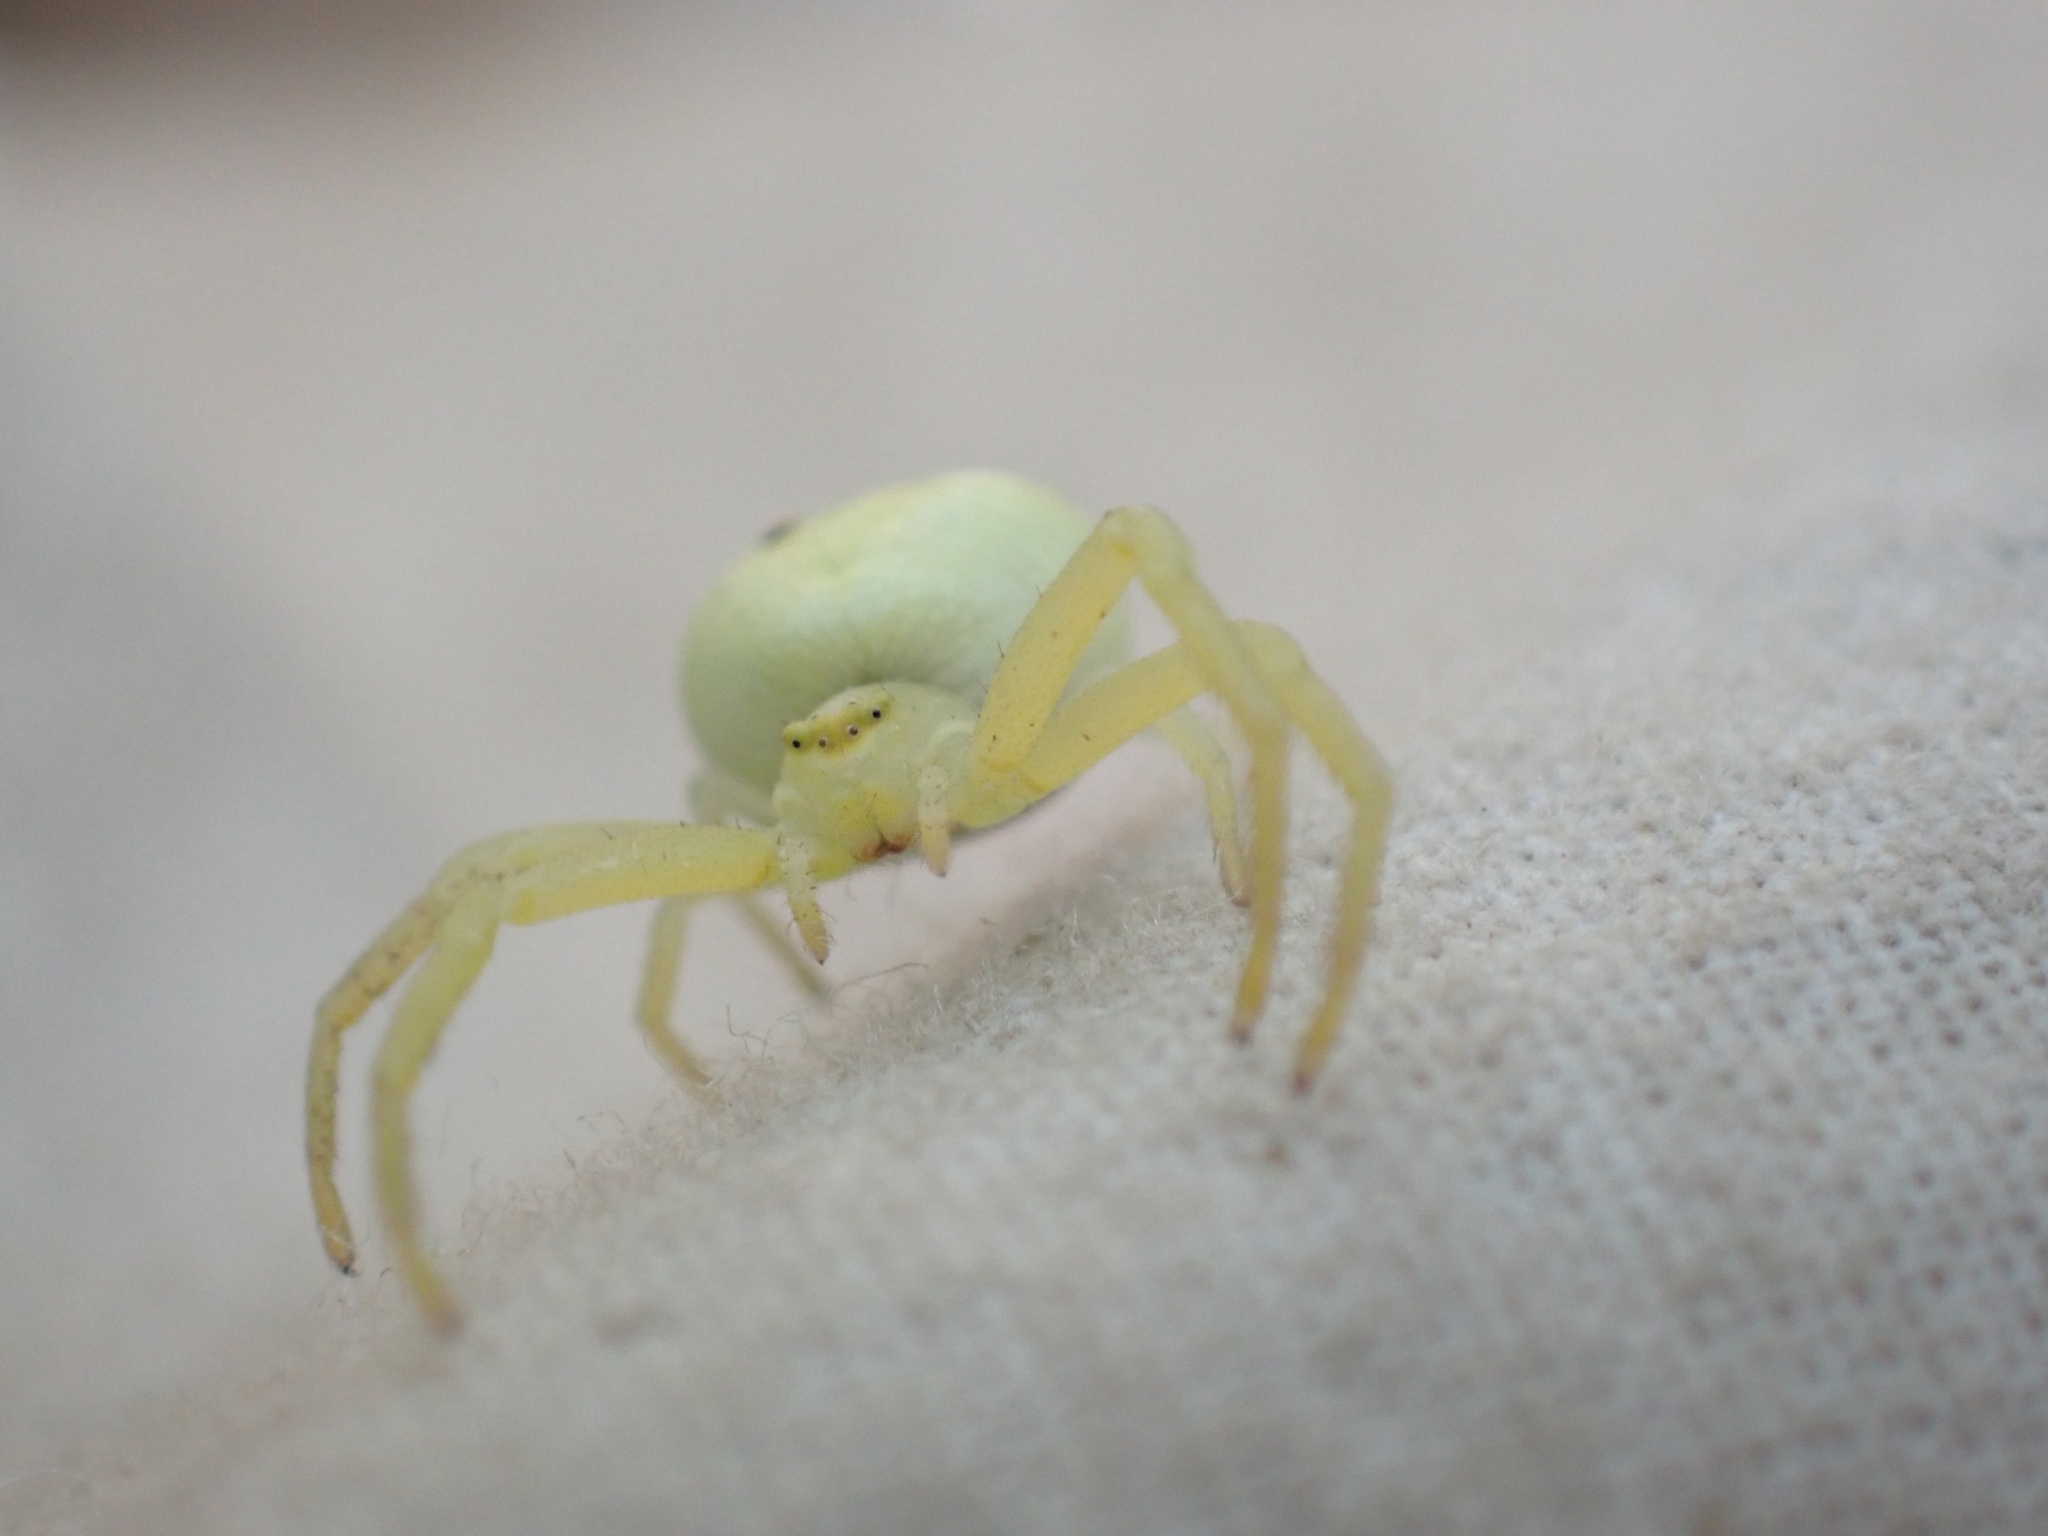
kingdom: Animalia
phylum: Arthropoda
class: Arachnida
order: Araneae
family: Thomisidae
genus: Misumena
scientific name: Misumena vatia
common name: Goldenrod crab spider
